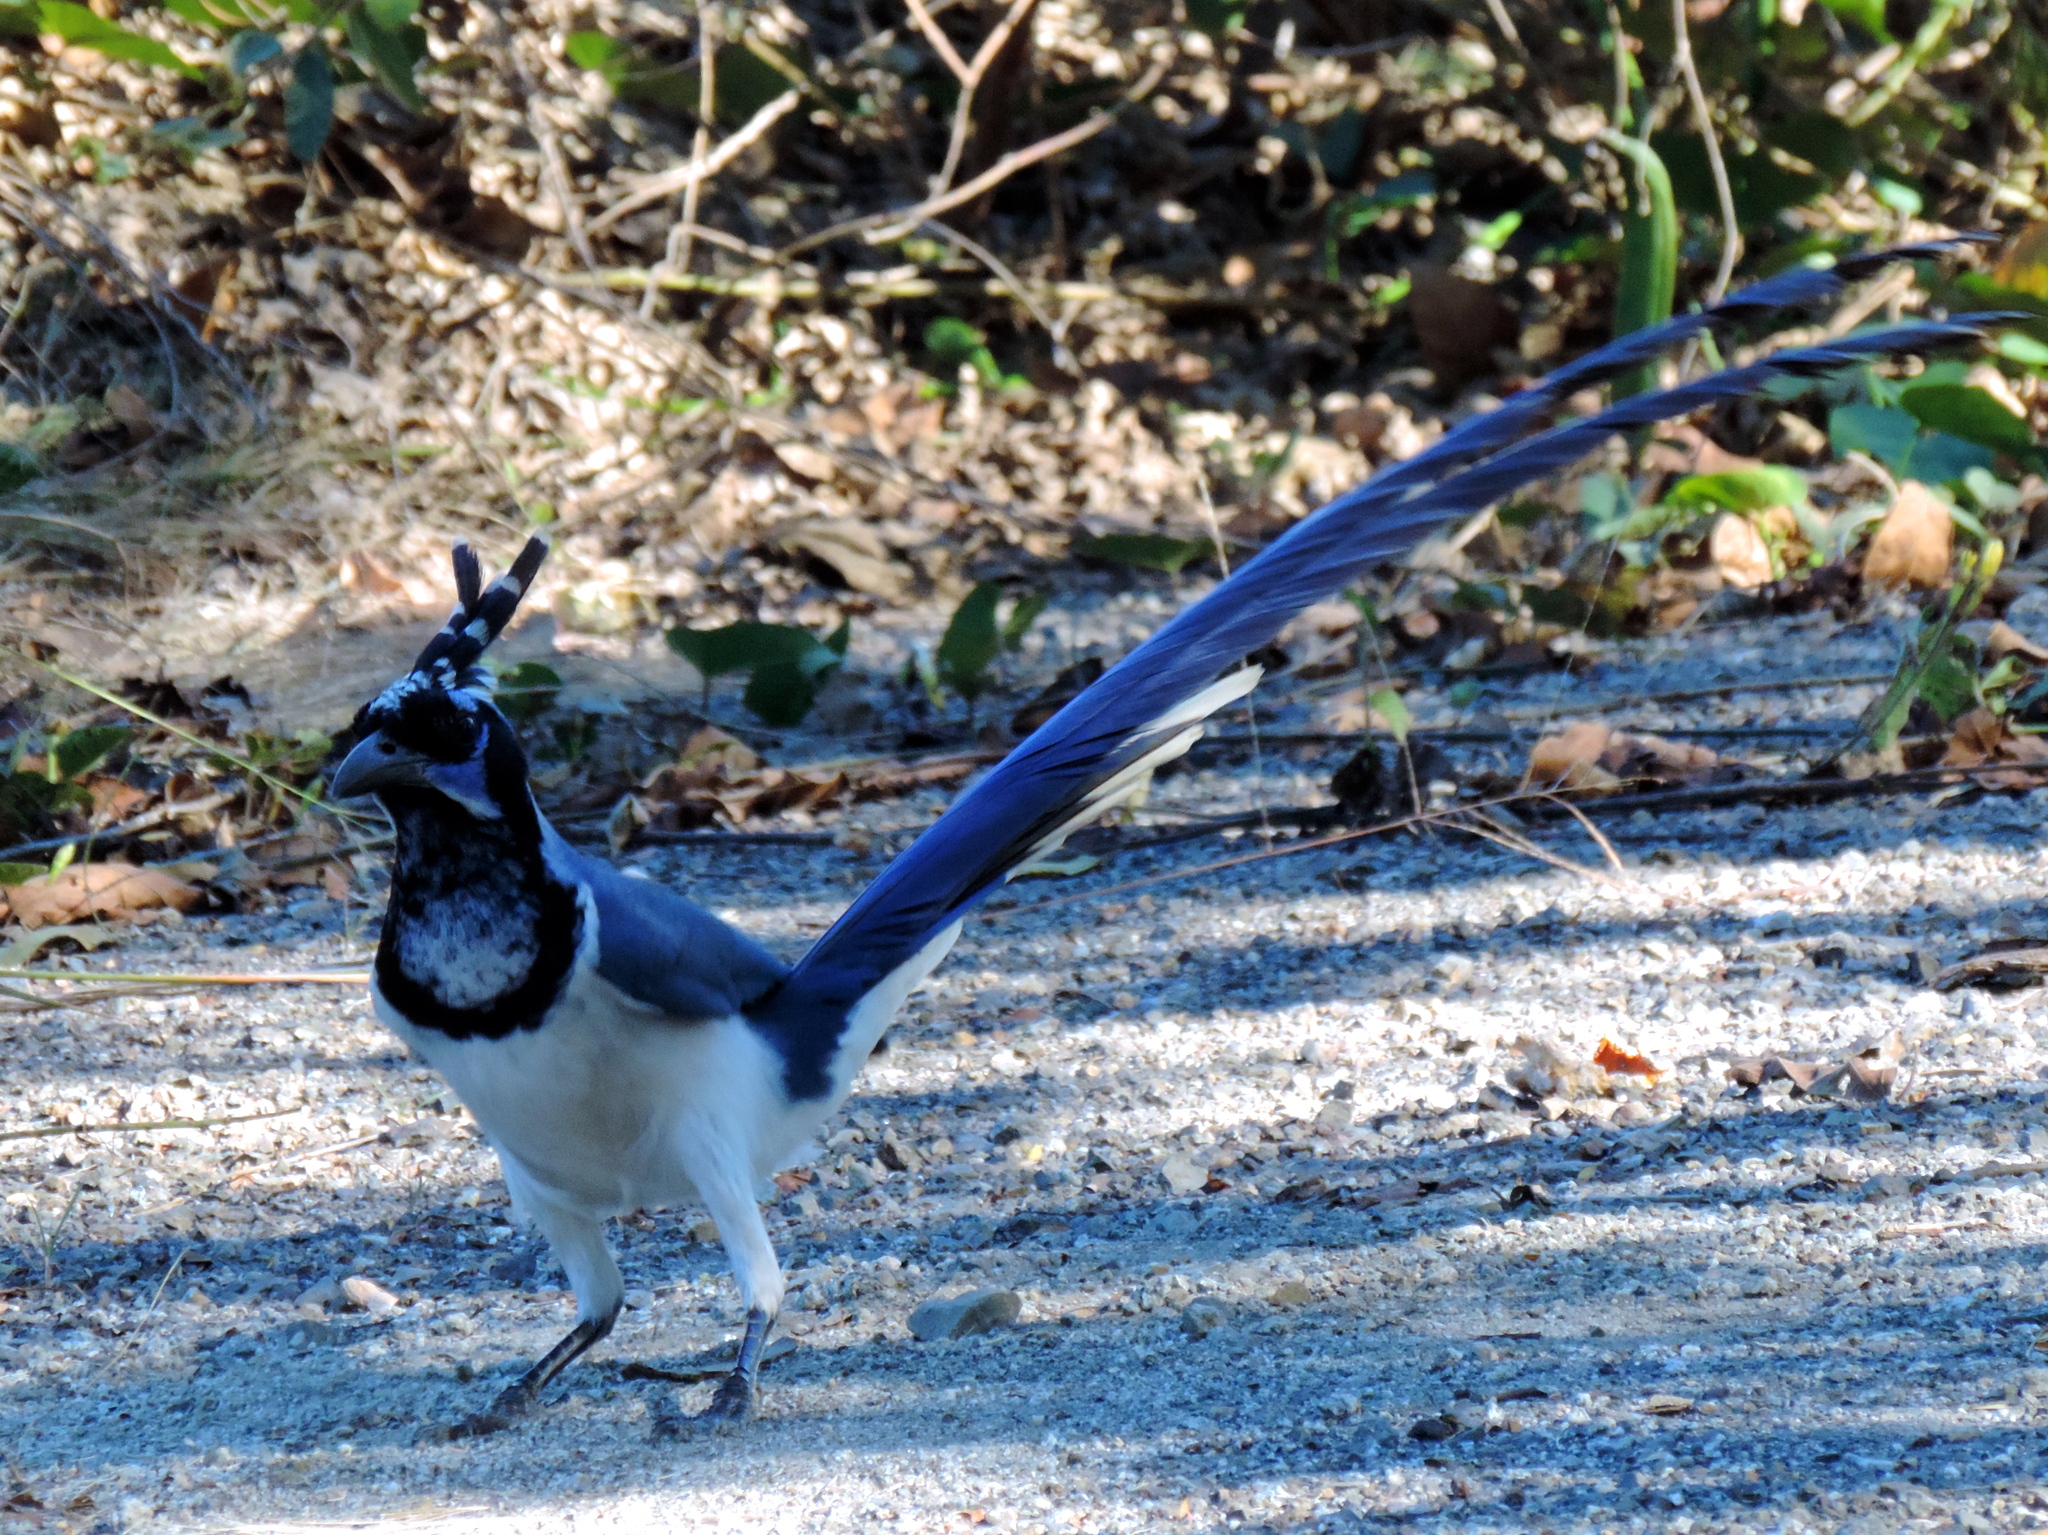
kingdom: Animalia
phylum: Chordata
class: Aves
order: Passeriformes
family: Corvidae
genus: Calocitta
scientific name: Calocitta colliei
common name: Black-throated magpie-jay
